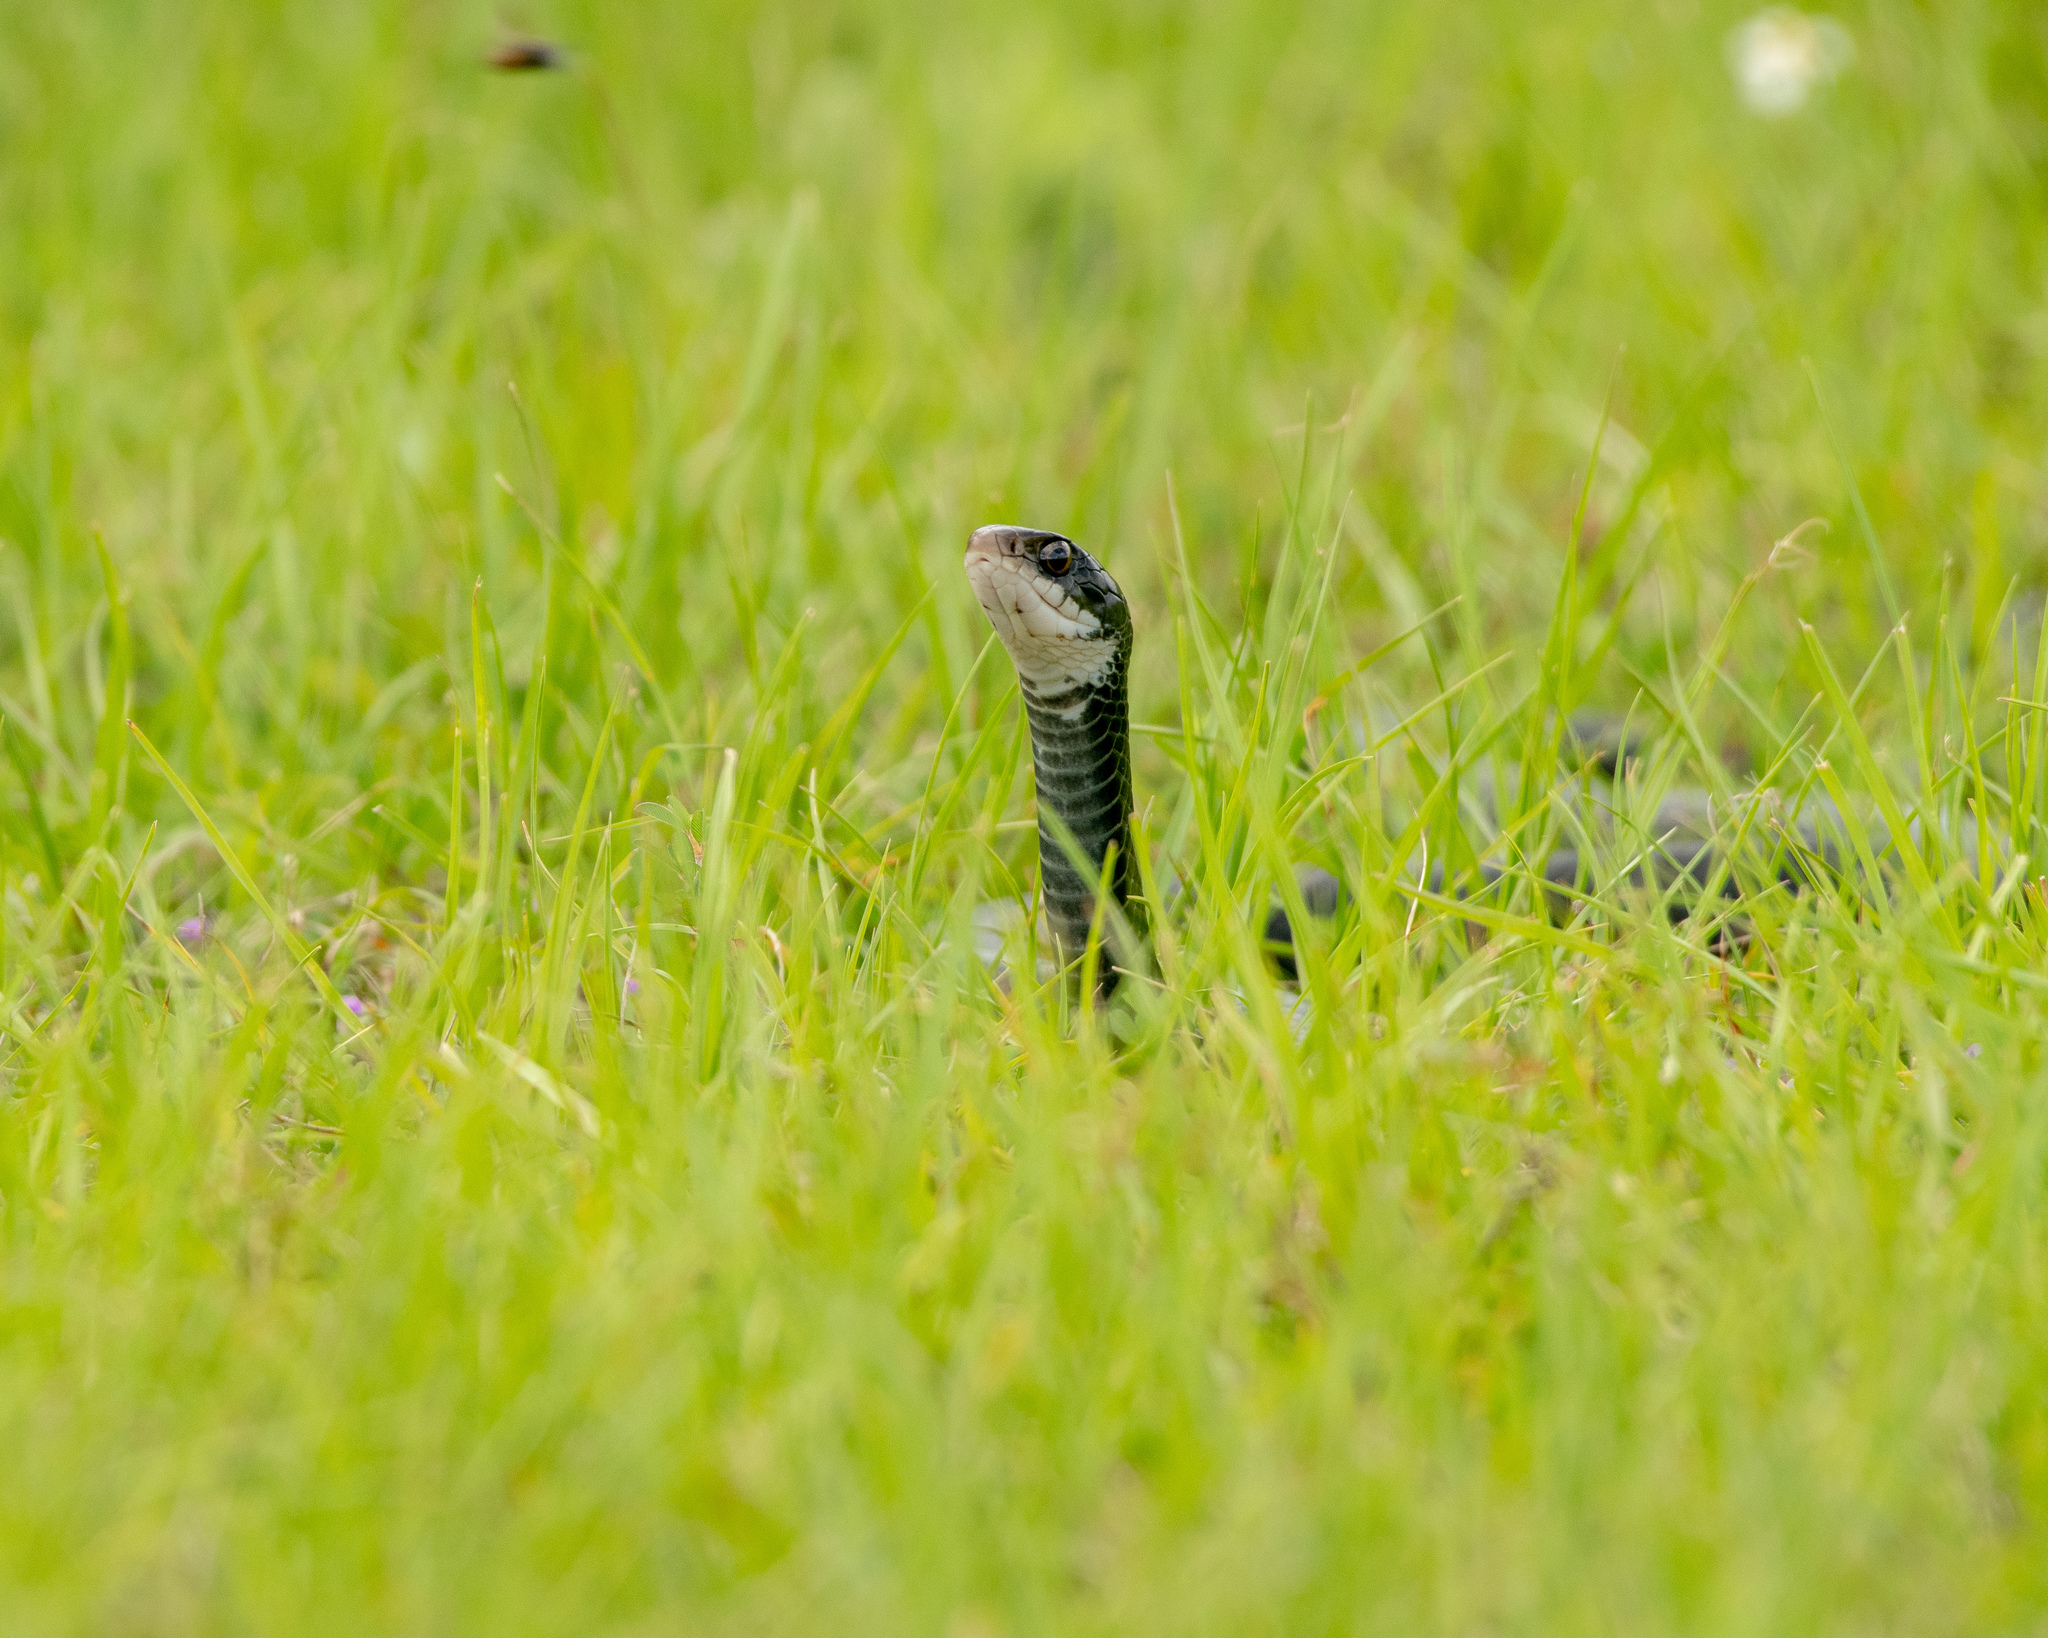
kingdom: Animalia
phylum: Chordata
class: Squamata
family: Colubridae
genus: Coluber
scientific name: Coluber constrictor
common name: Eastern racer
